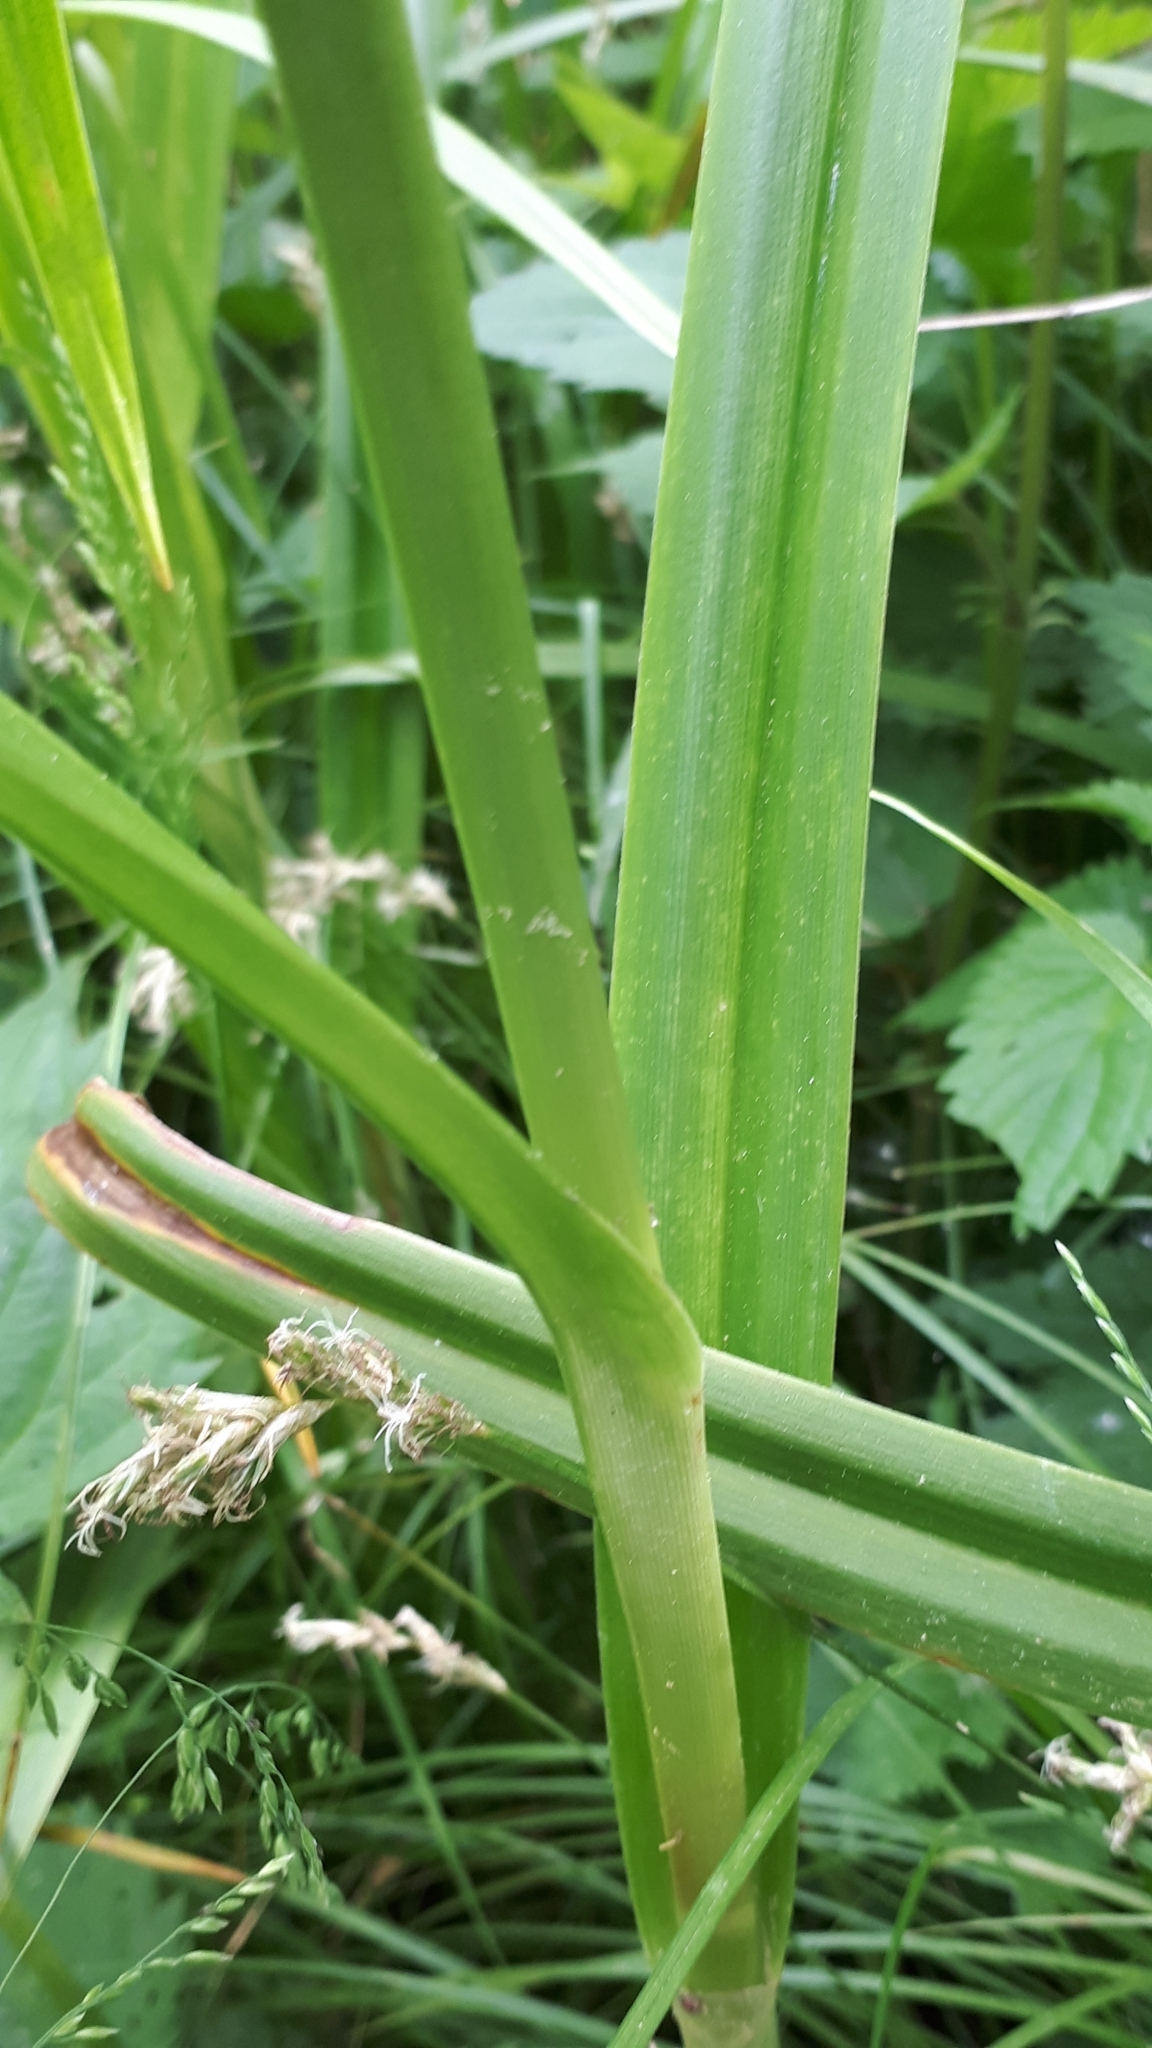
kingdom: Plantae
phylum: Tracheophyta
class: Liliopsida
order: Poales
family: Cyperaceae
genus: Scirpus
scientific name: Scirpus sylvaticus
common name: Wood club-rush
